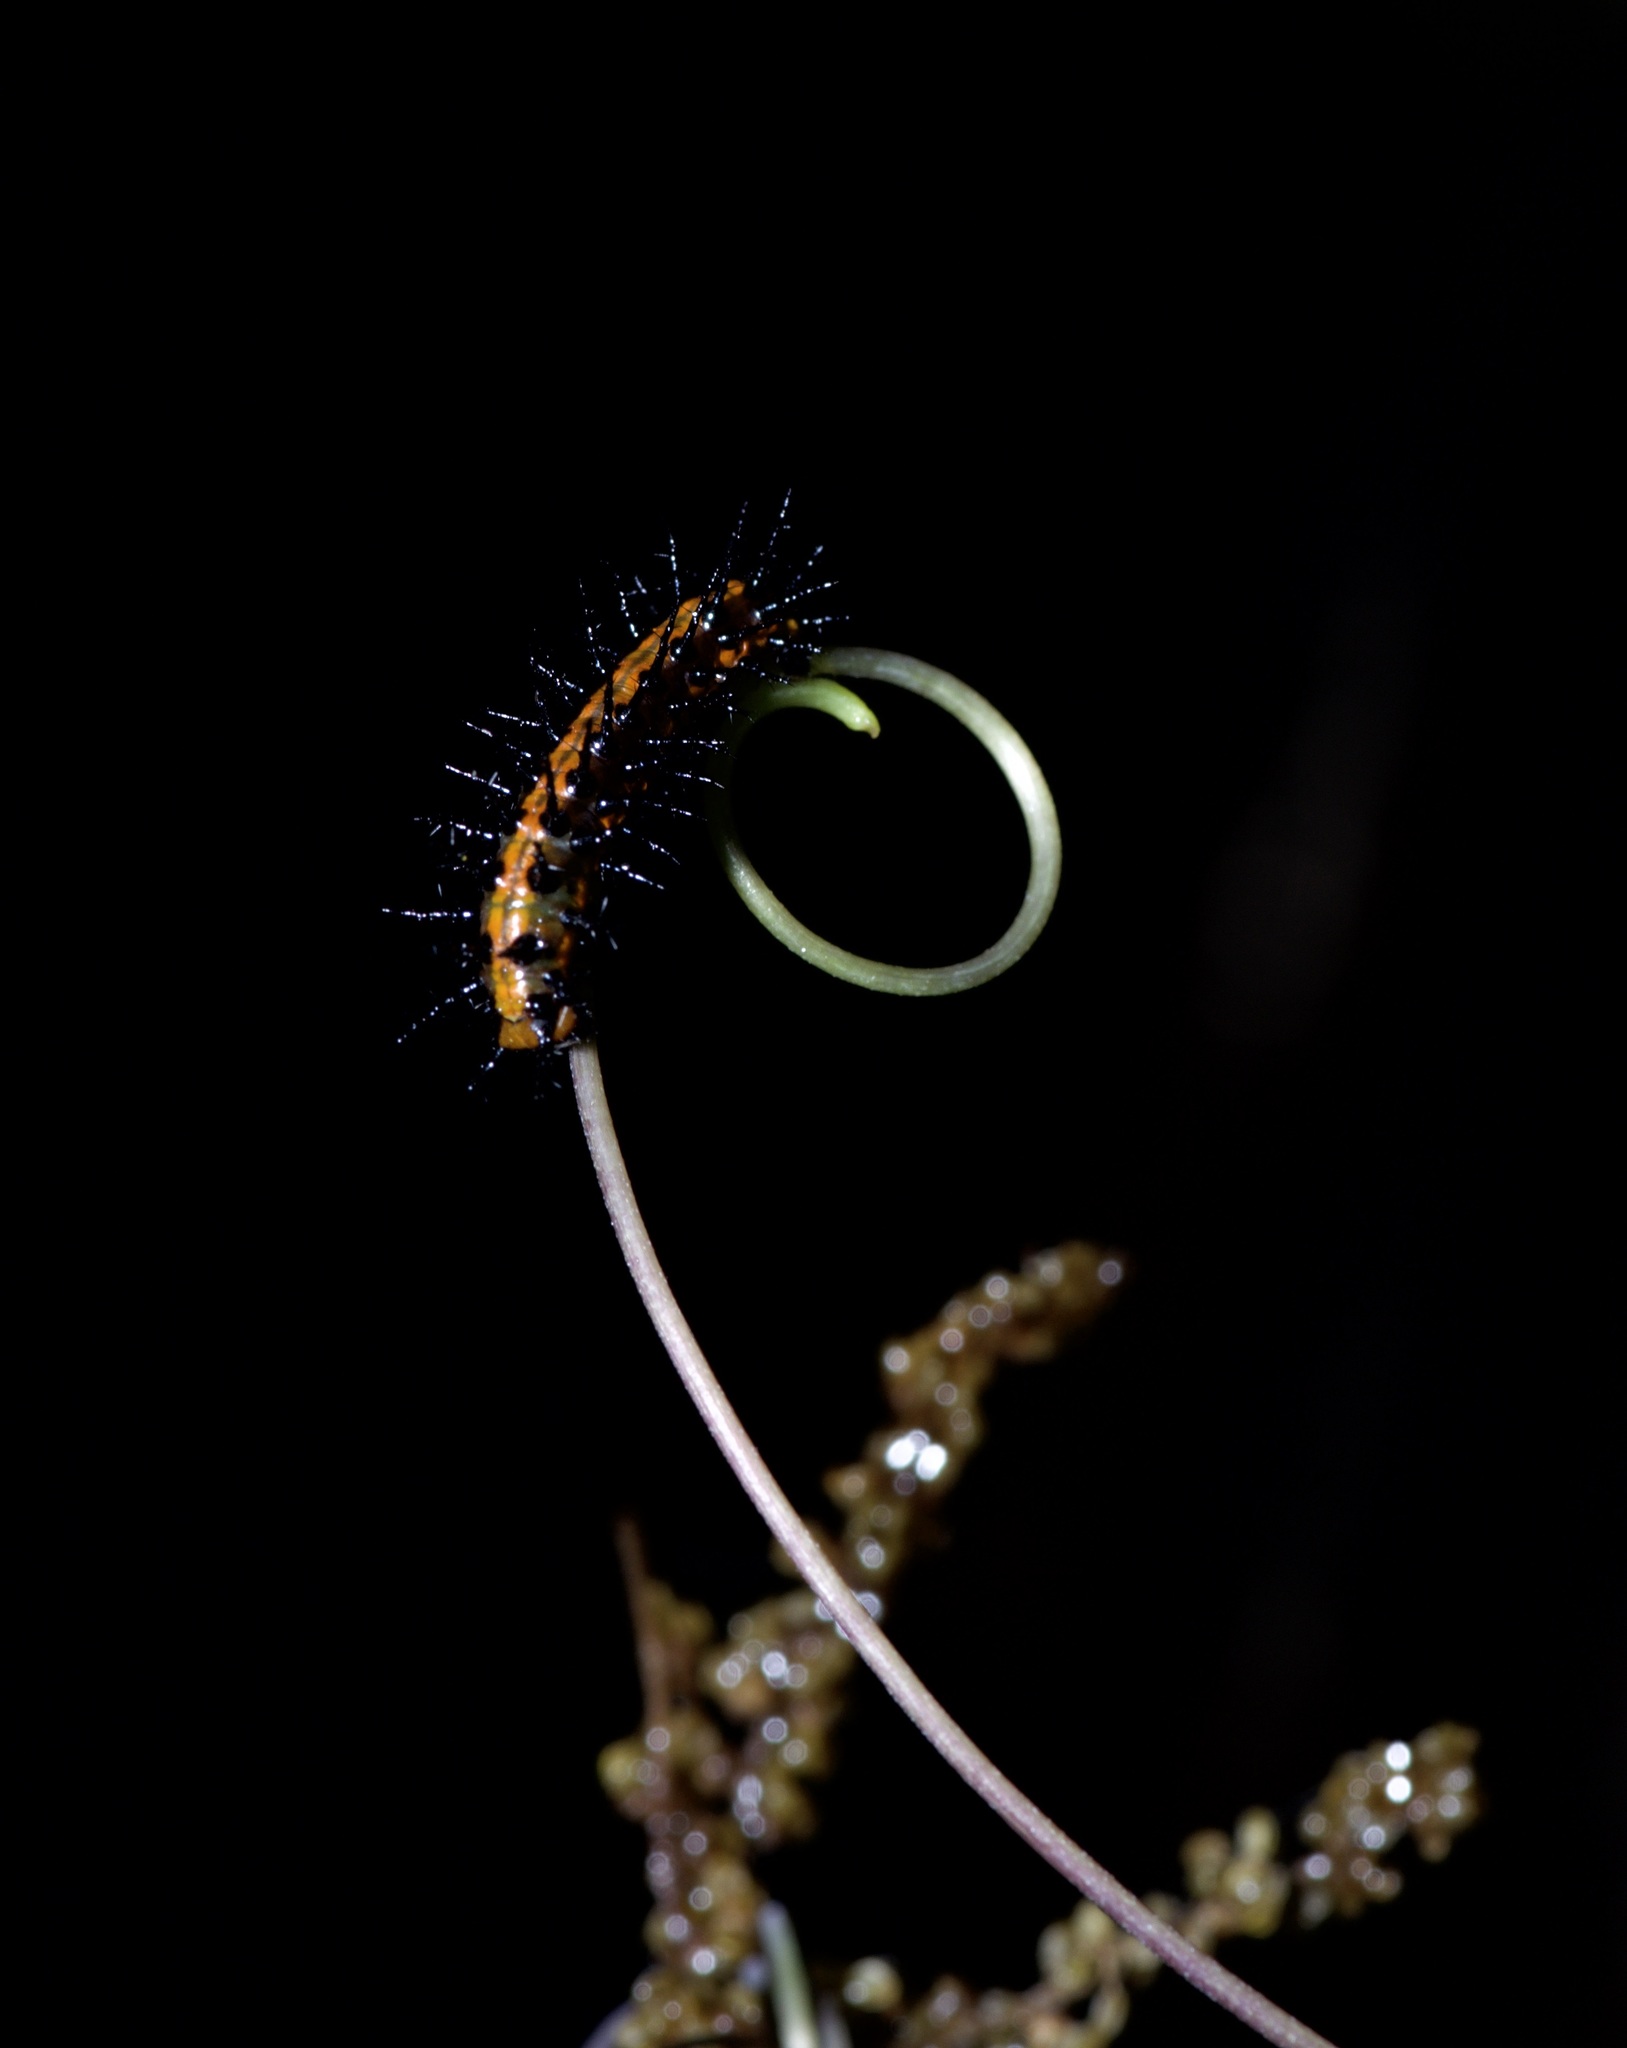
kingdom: Animalia
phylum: Arthropoda
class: Insecta
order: Lepidoptera
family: Nymphalidae
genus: Dione
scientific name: Dione vanillae
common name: Gulf fritillary
